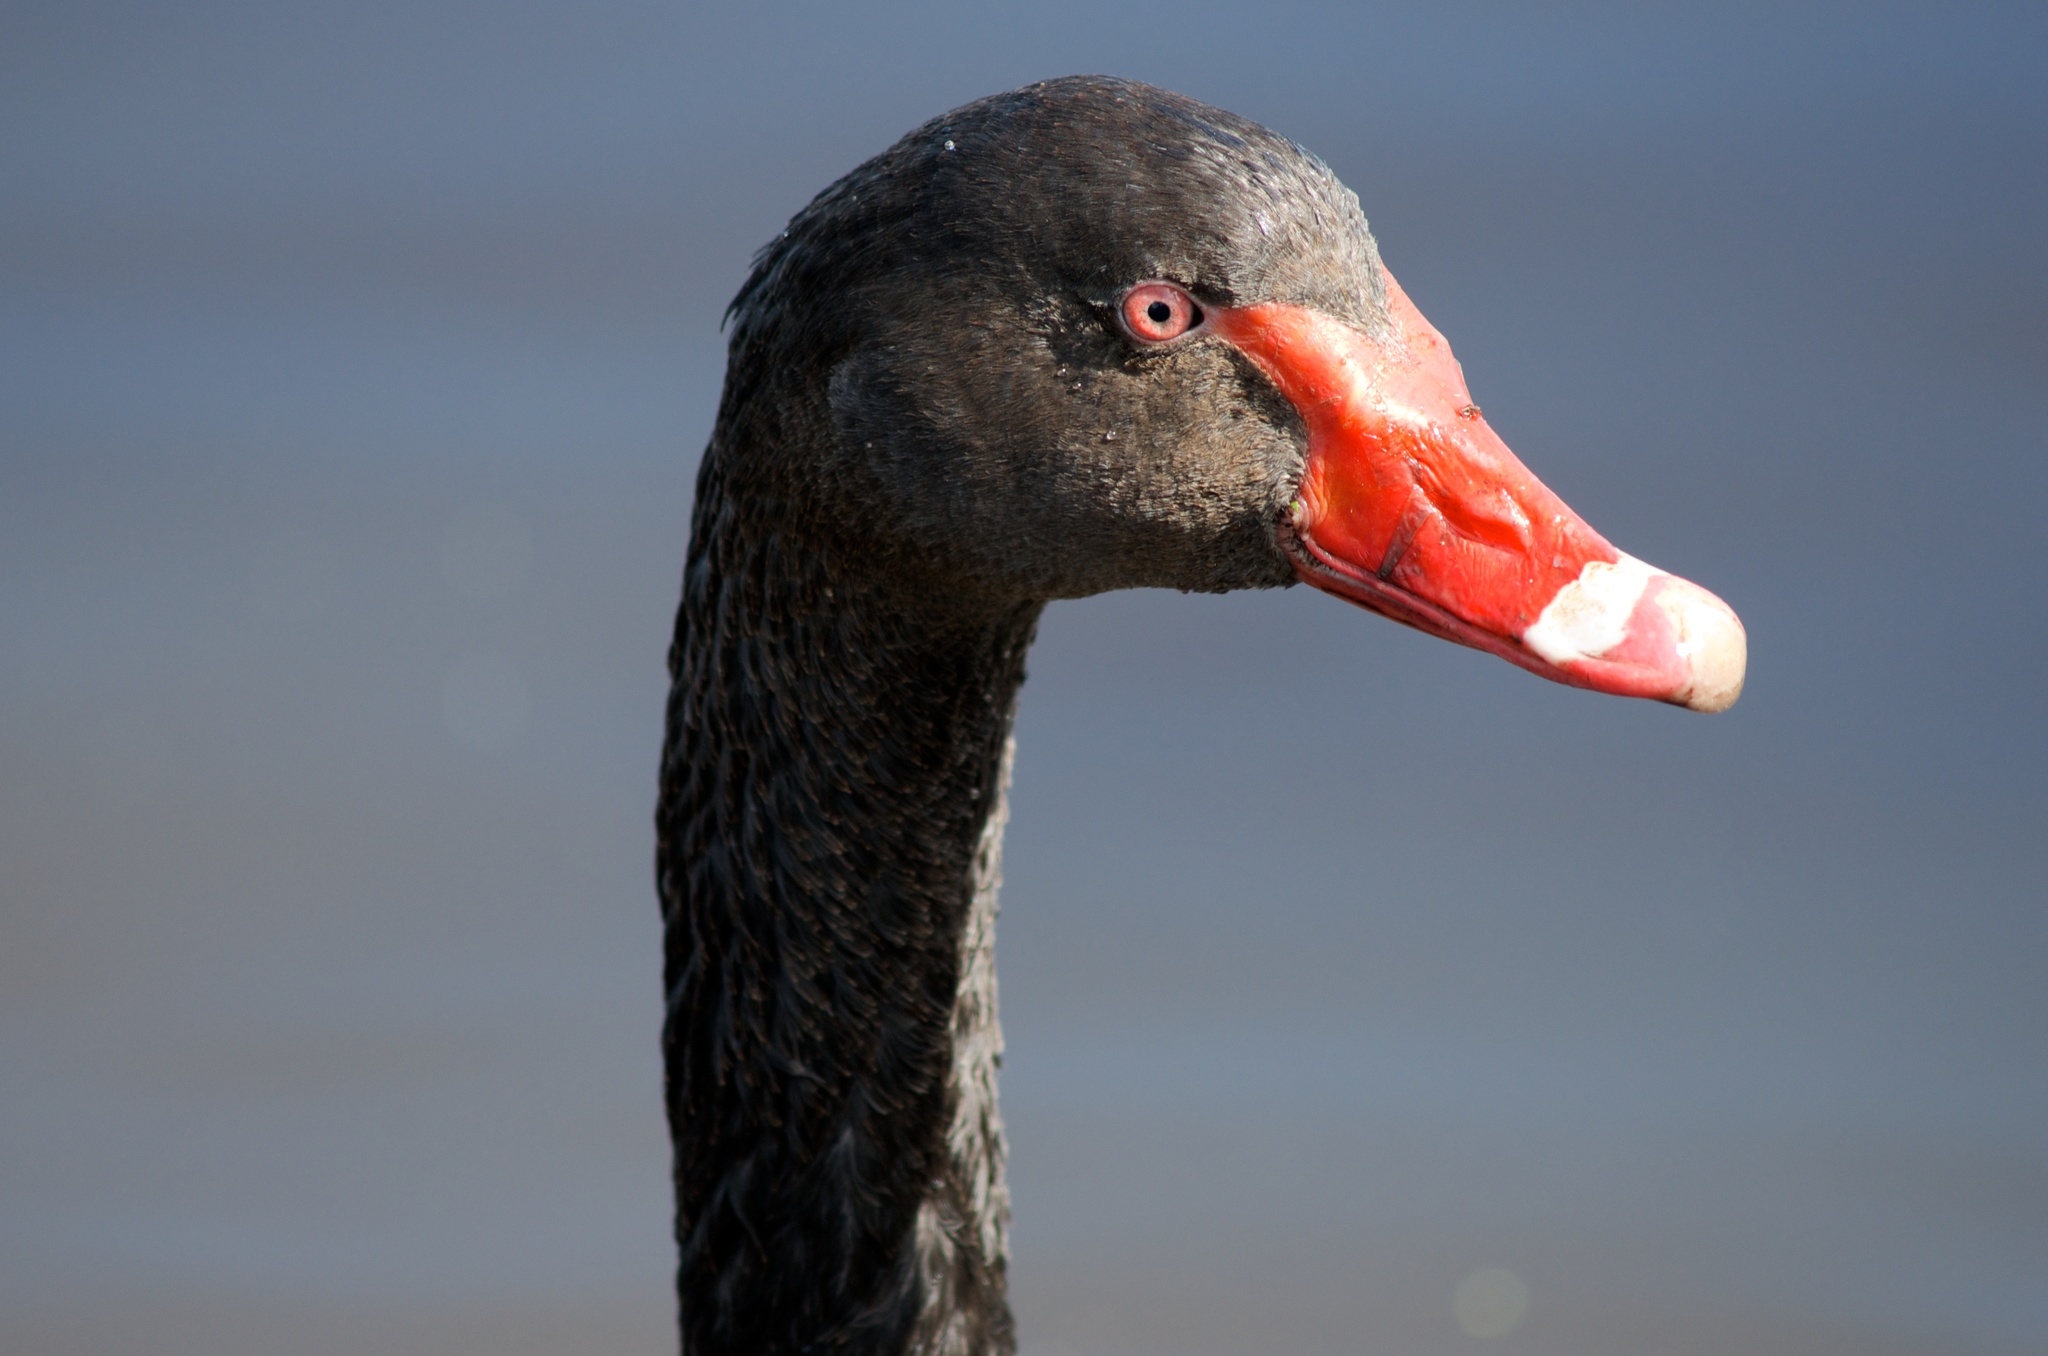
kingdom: Animalia
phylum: Chordata
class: Aves
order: Anseriformes
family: Anatidae
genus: Cygnus
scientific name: Cygnus atratus
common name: Black swan
